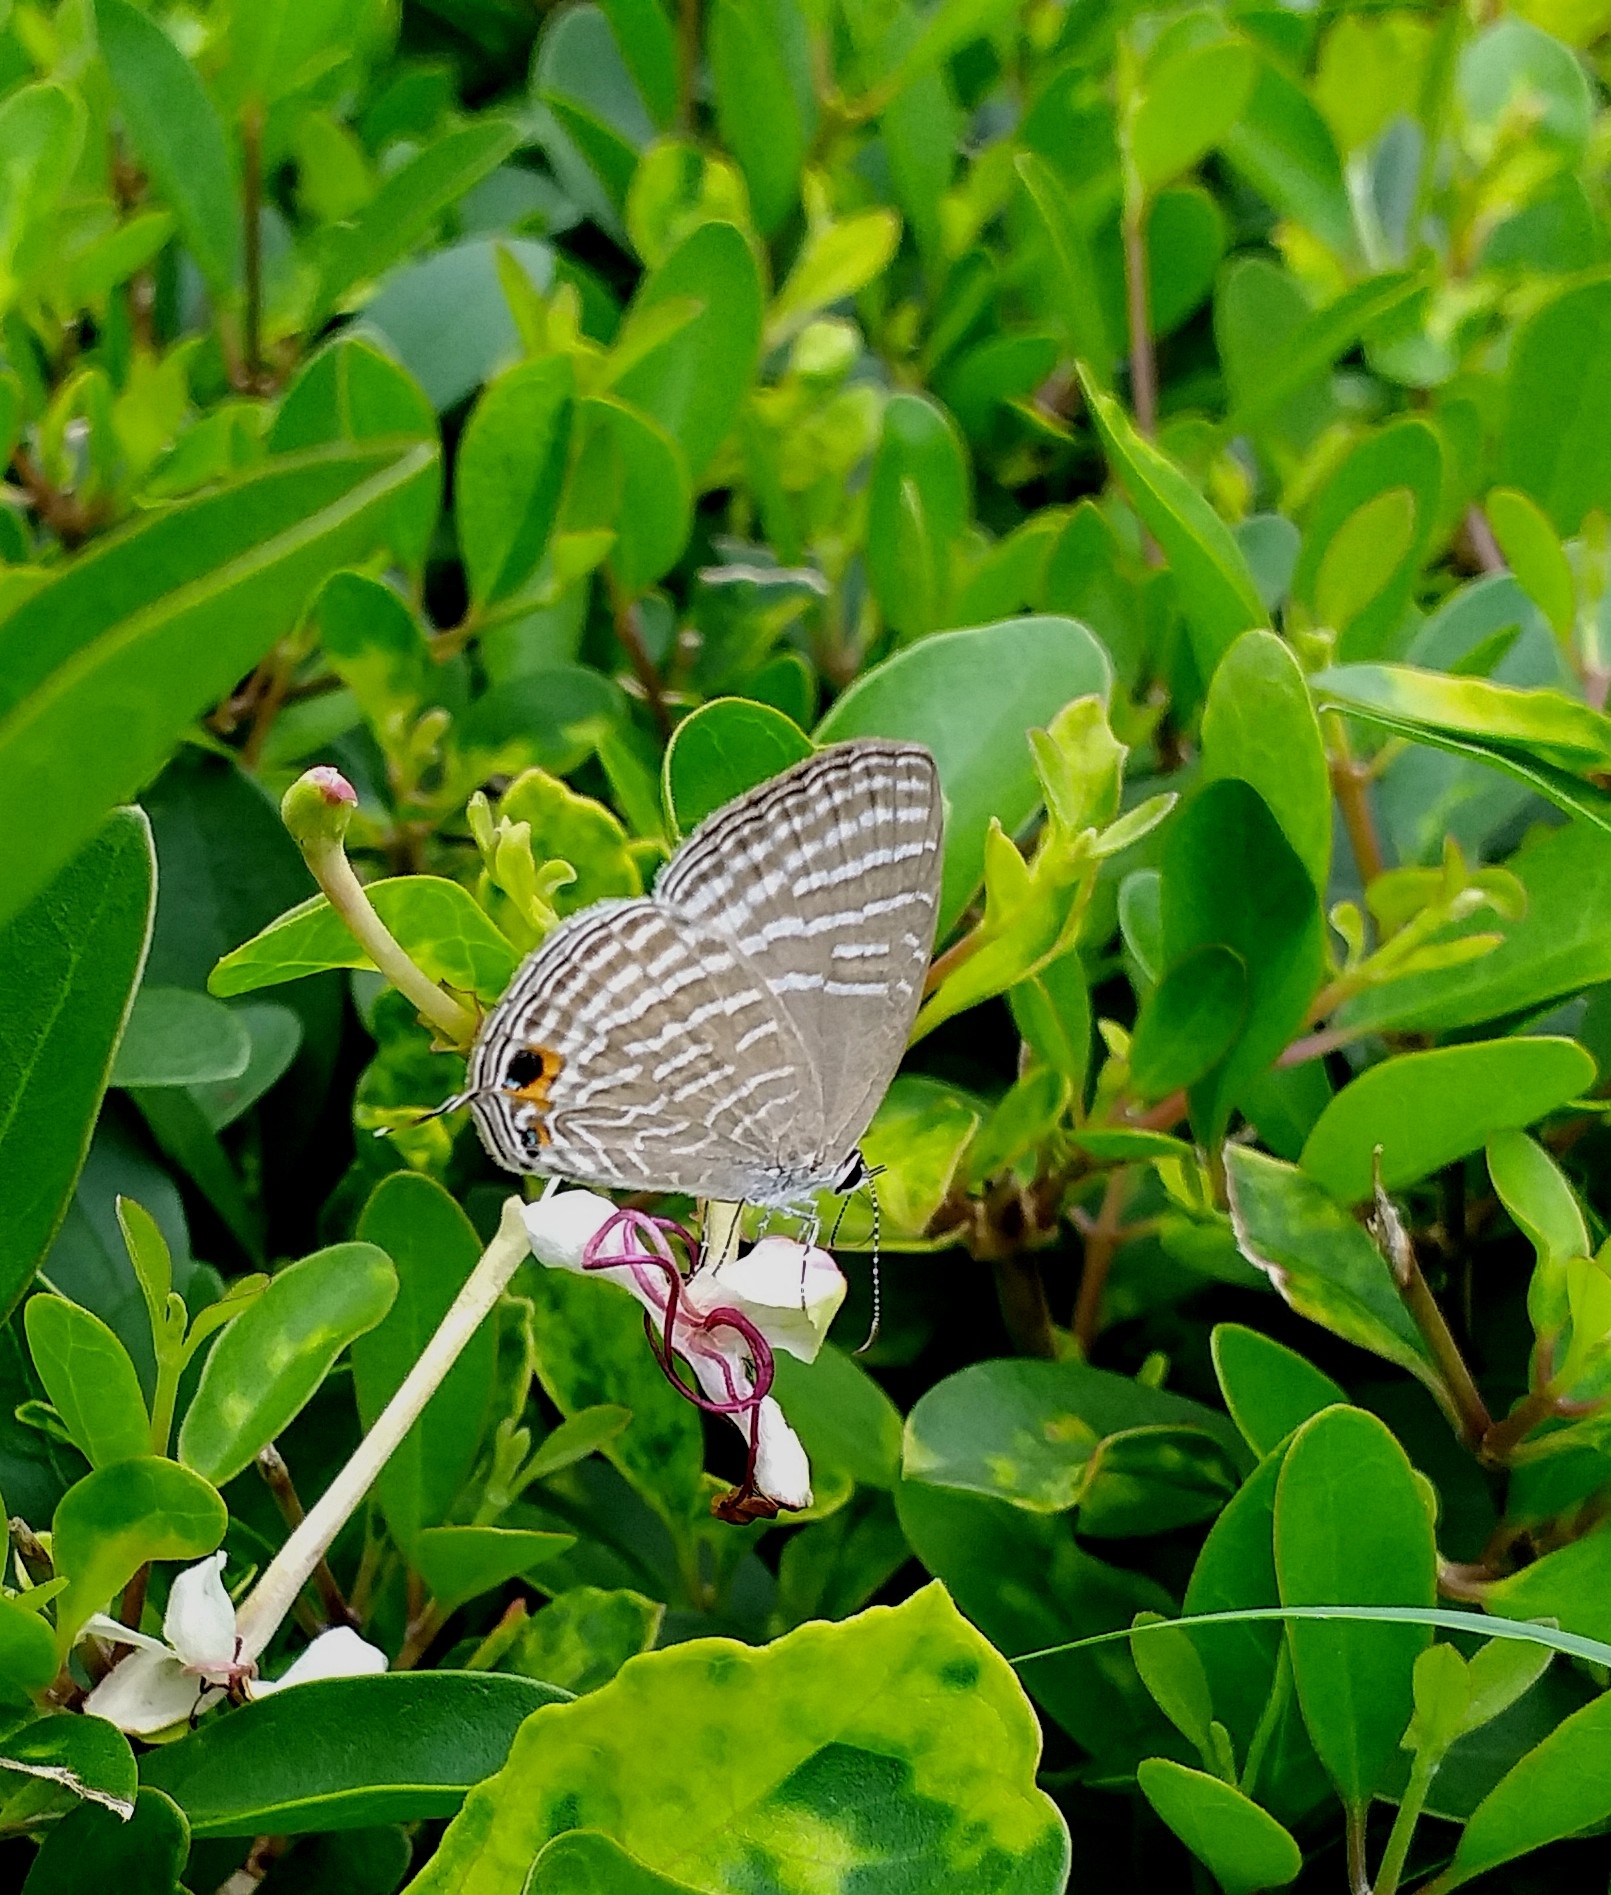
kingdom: Animalia
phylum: Arthropoda
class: Insecta
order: Lepidoptera
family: Lycaenidae
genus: Jamides
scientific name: Jamides celeno
